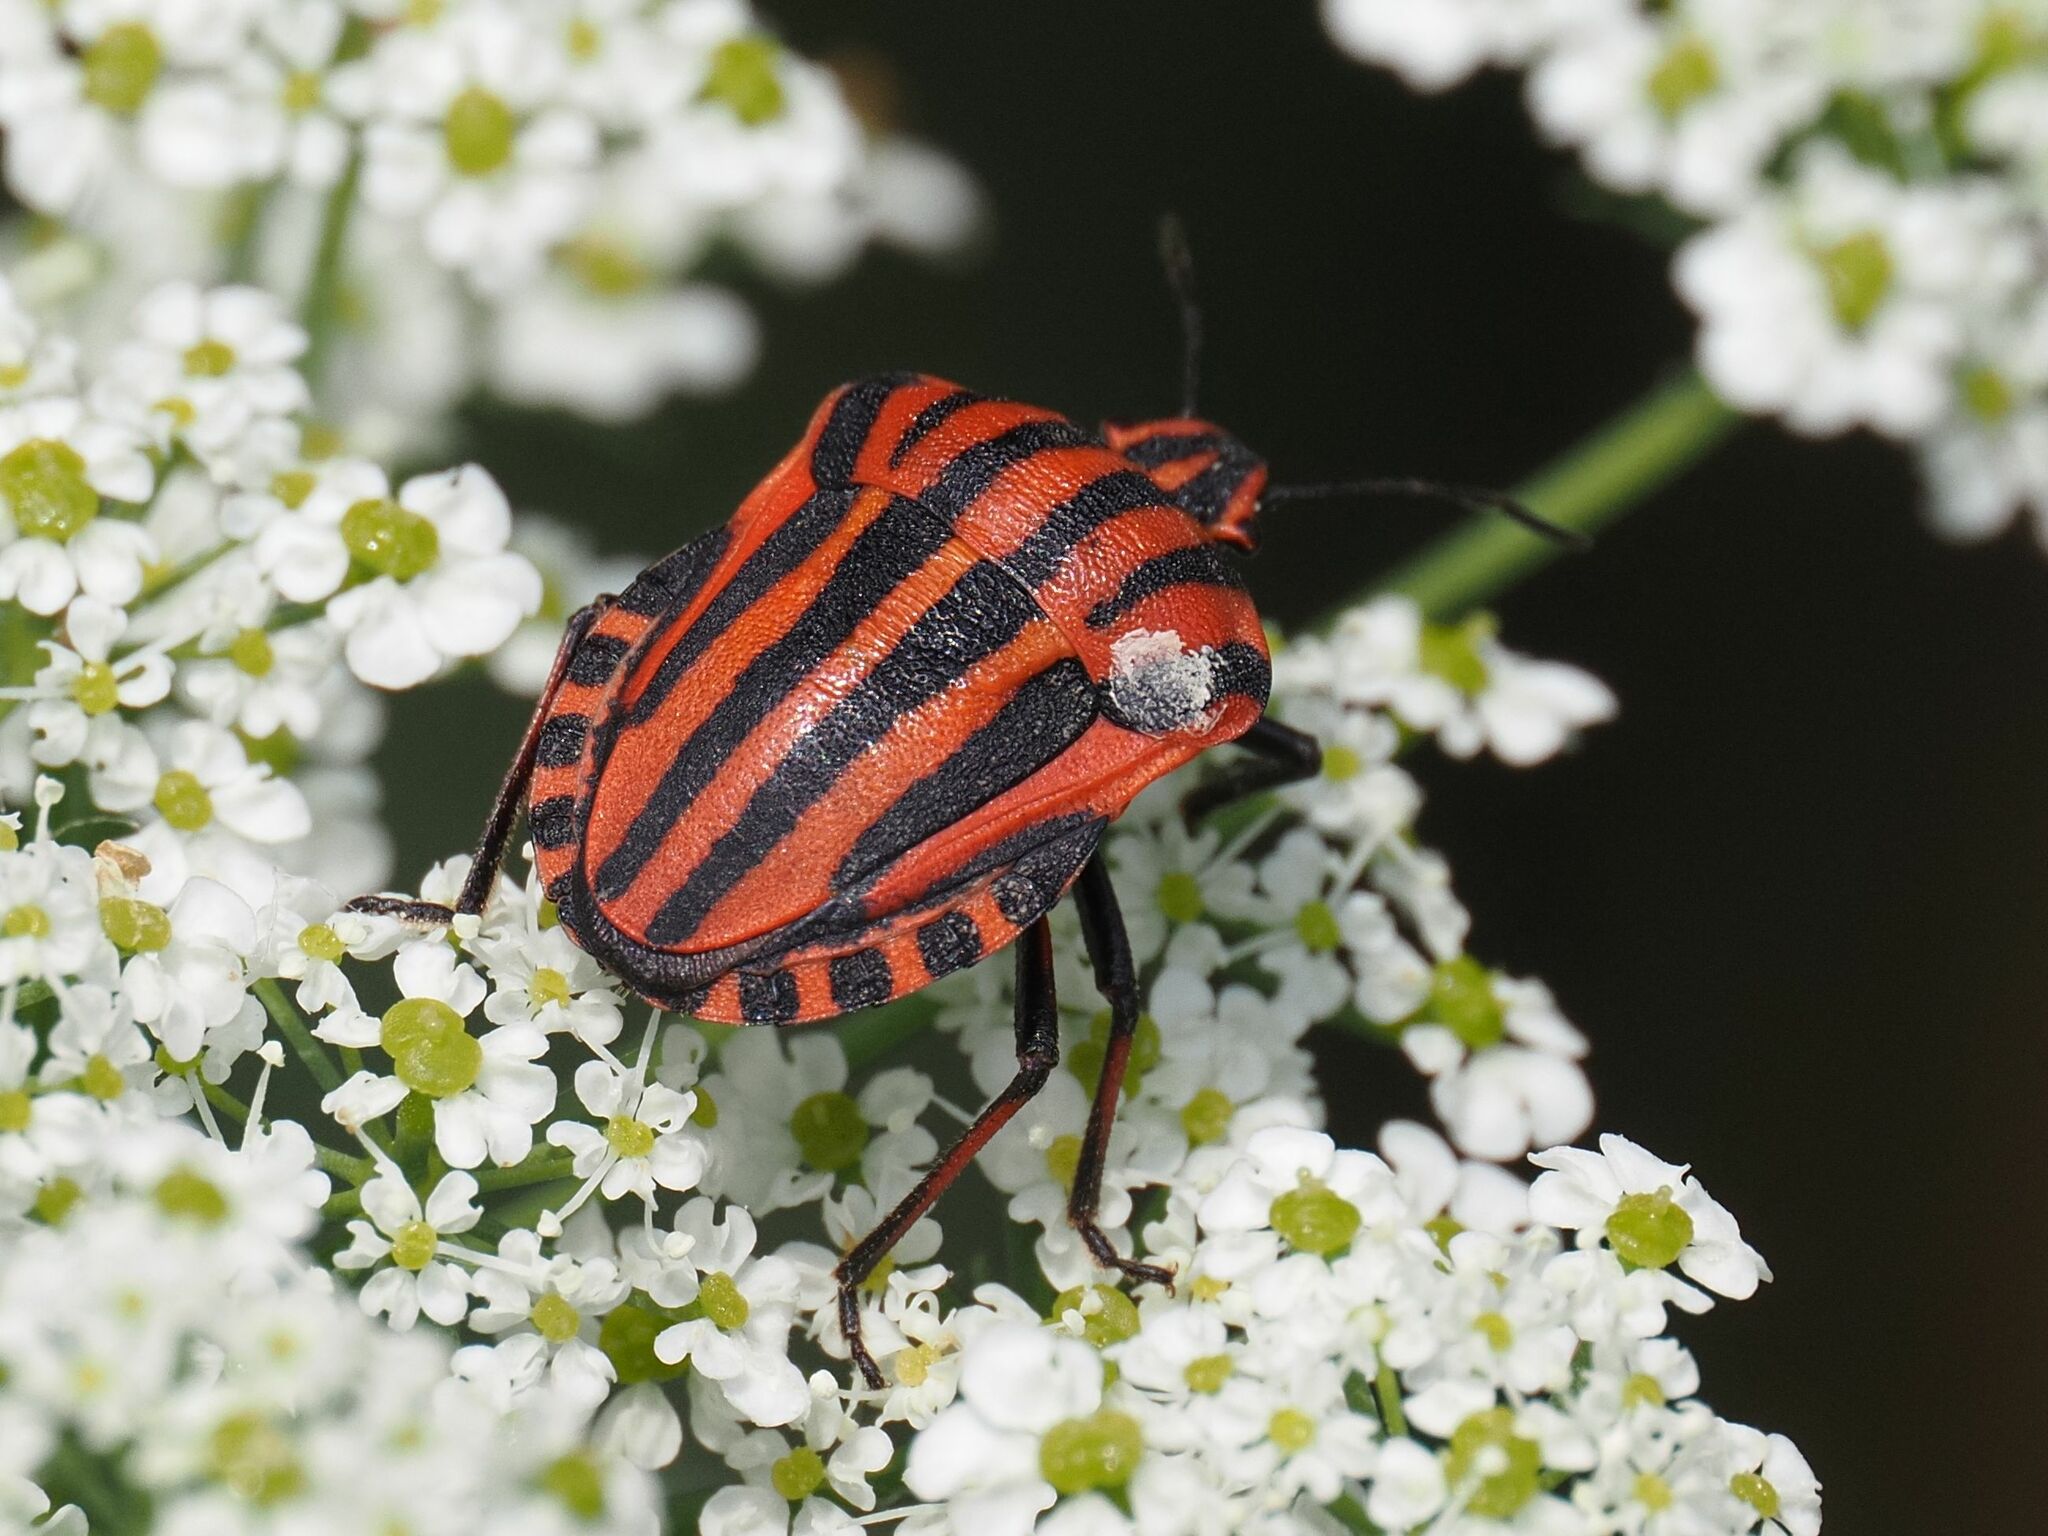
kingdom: Animalia
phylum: Arthropoda
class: Insecta
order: Hemiptera
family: Pentatomidae
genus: Graphosoma
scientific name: Graphosoma italicum
